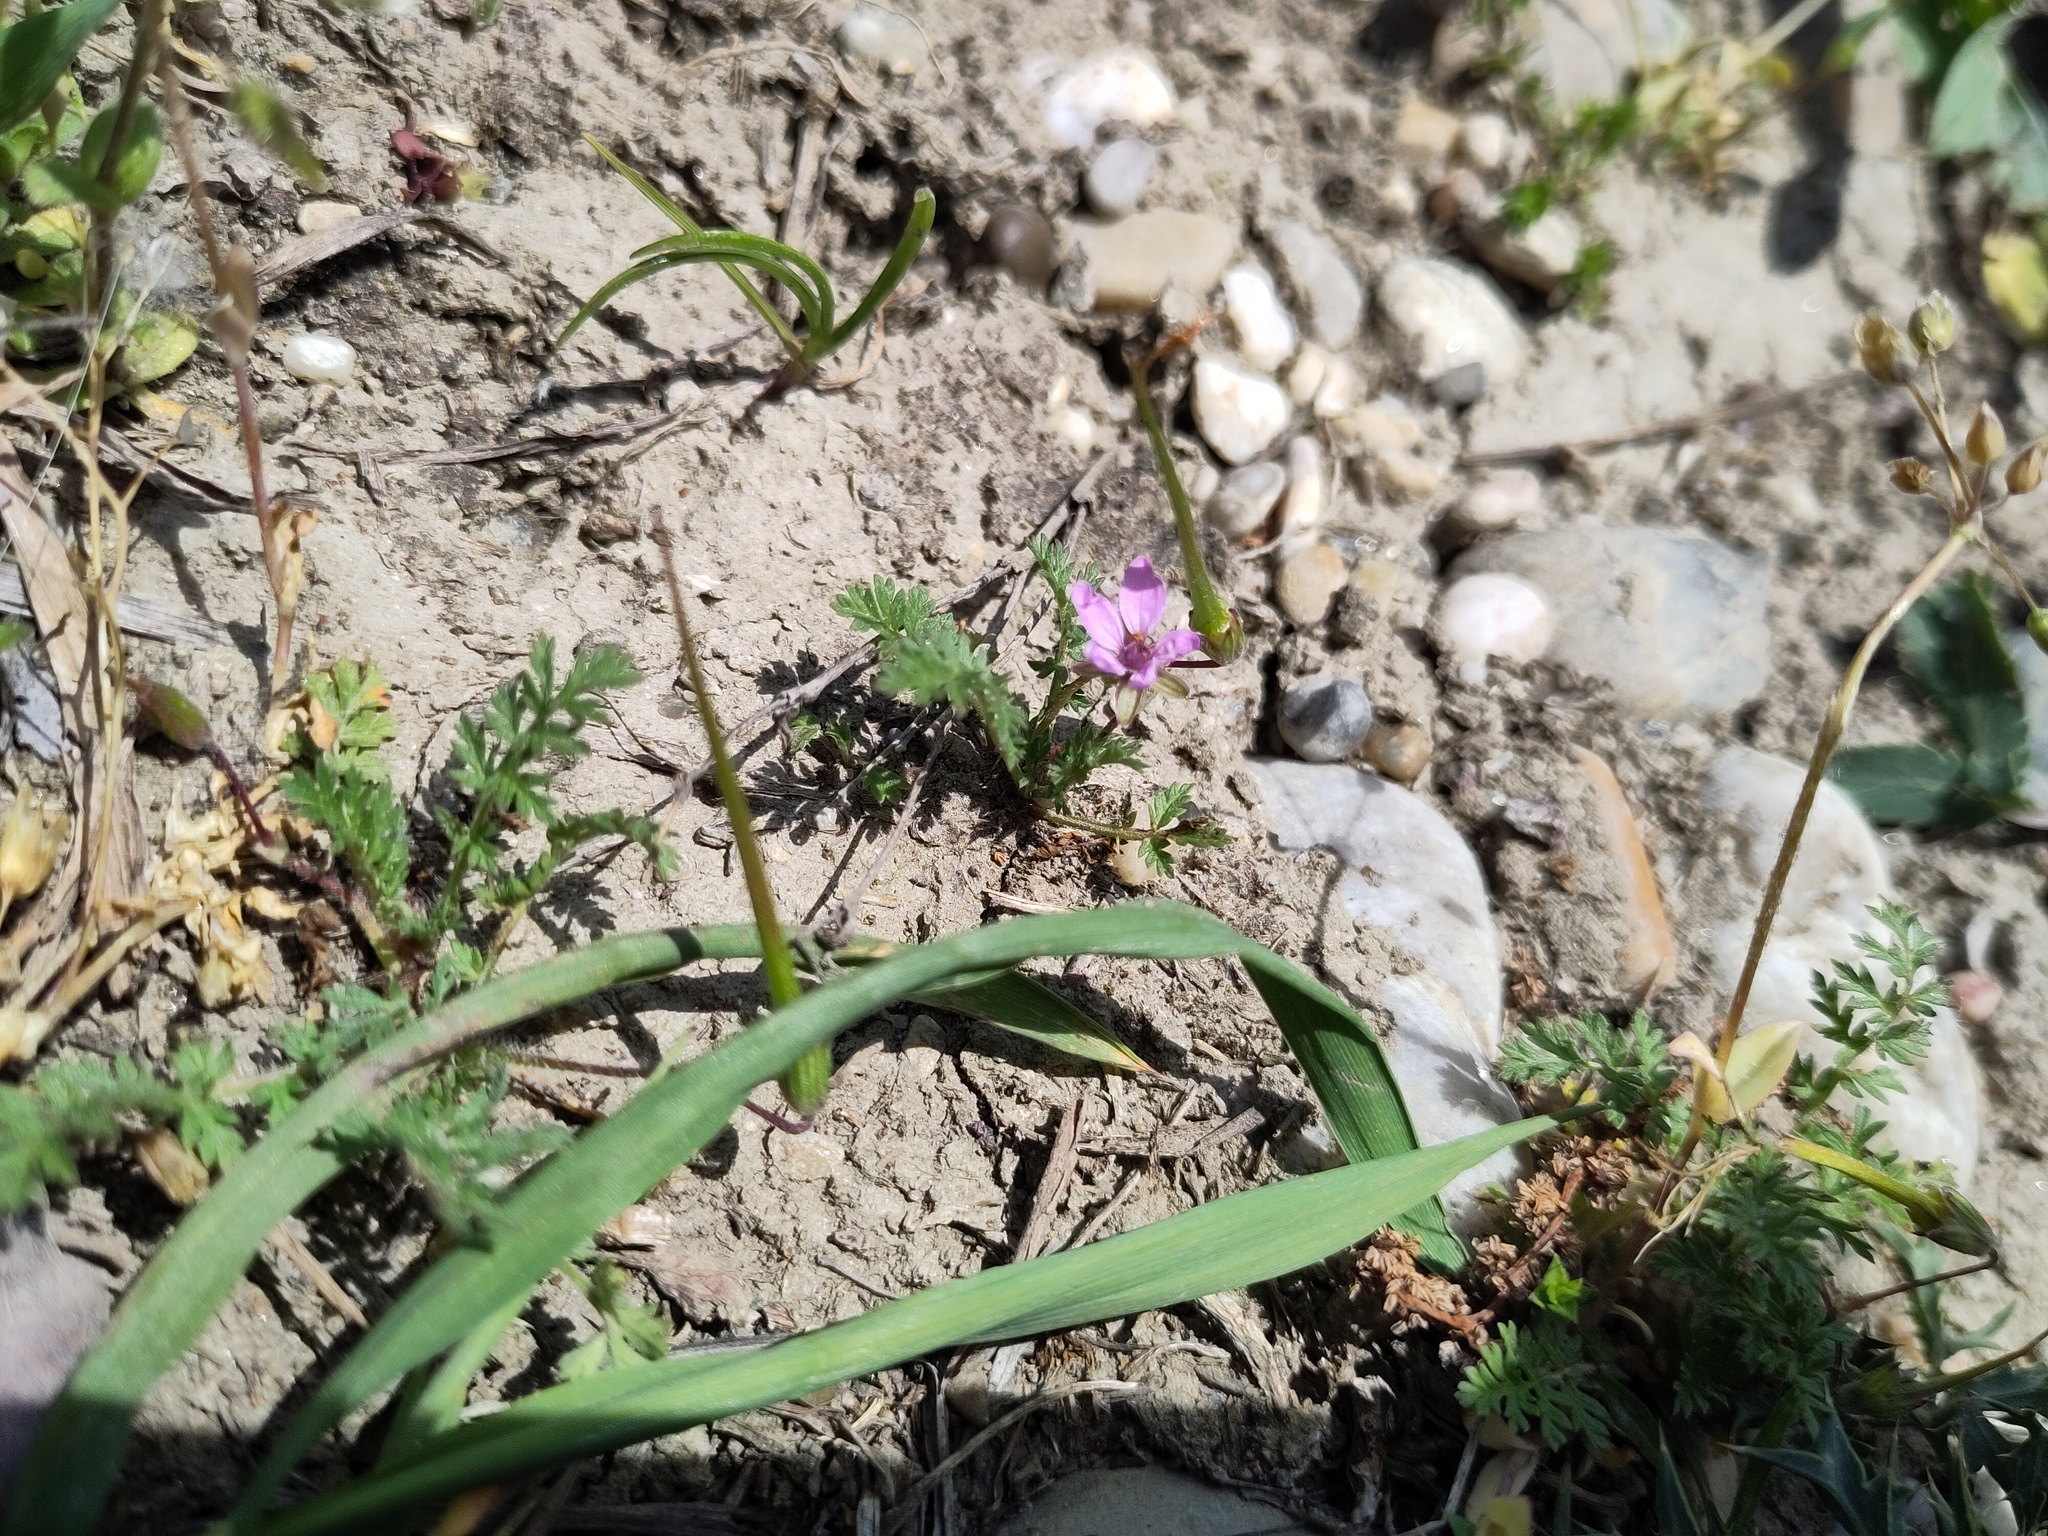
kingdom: Plantae
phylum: Tracheophyta
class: Magnoliopsida
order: Geraniales
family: Geraniaceae
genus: Erodium
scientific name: Erodium cicutarium
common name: Common stork's-bill
